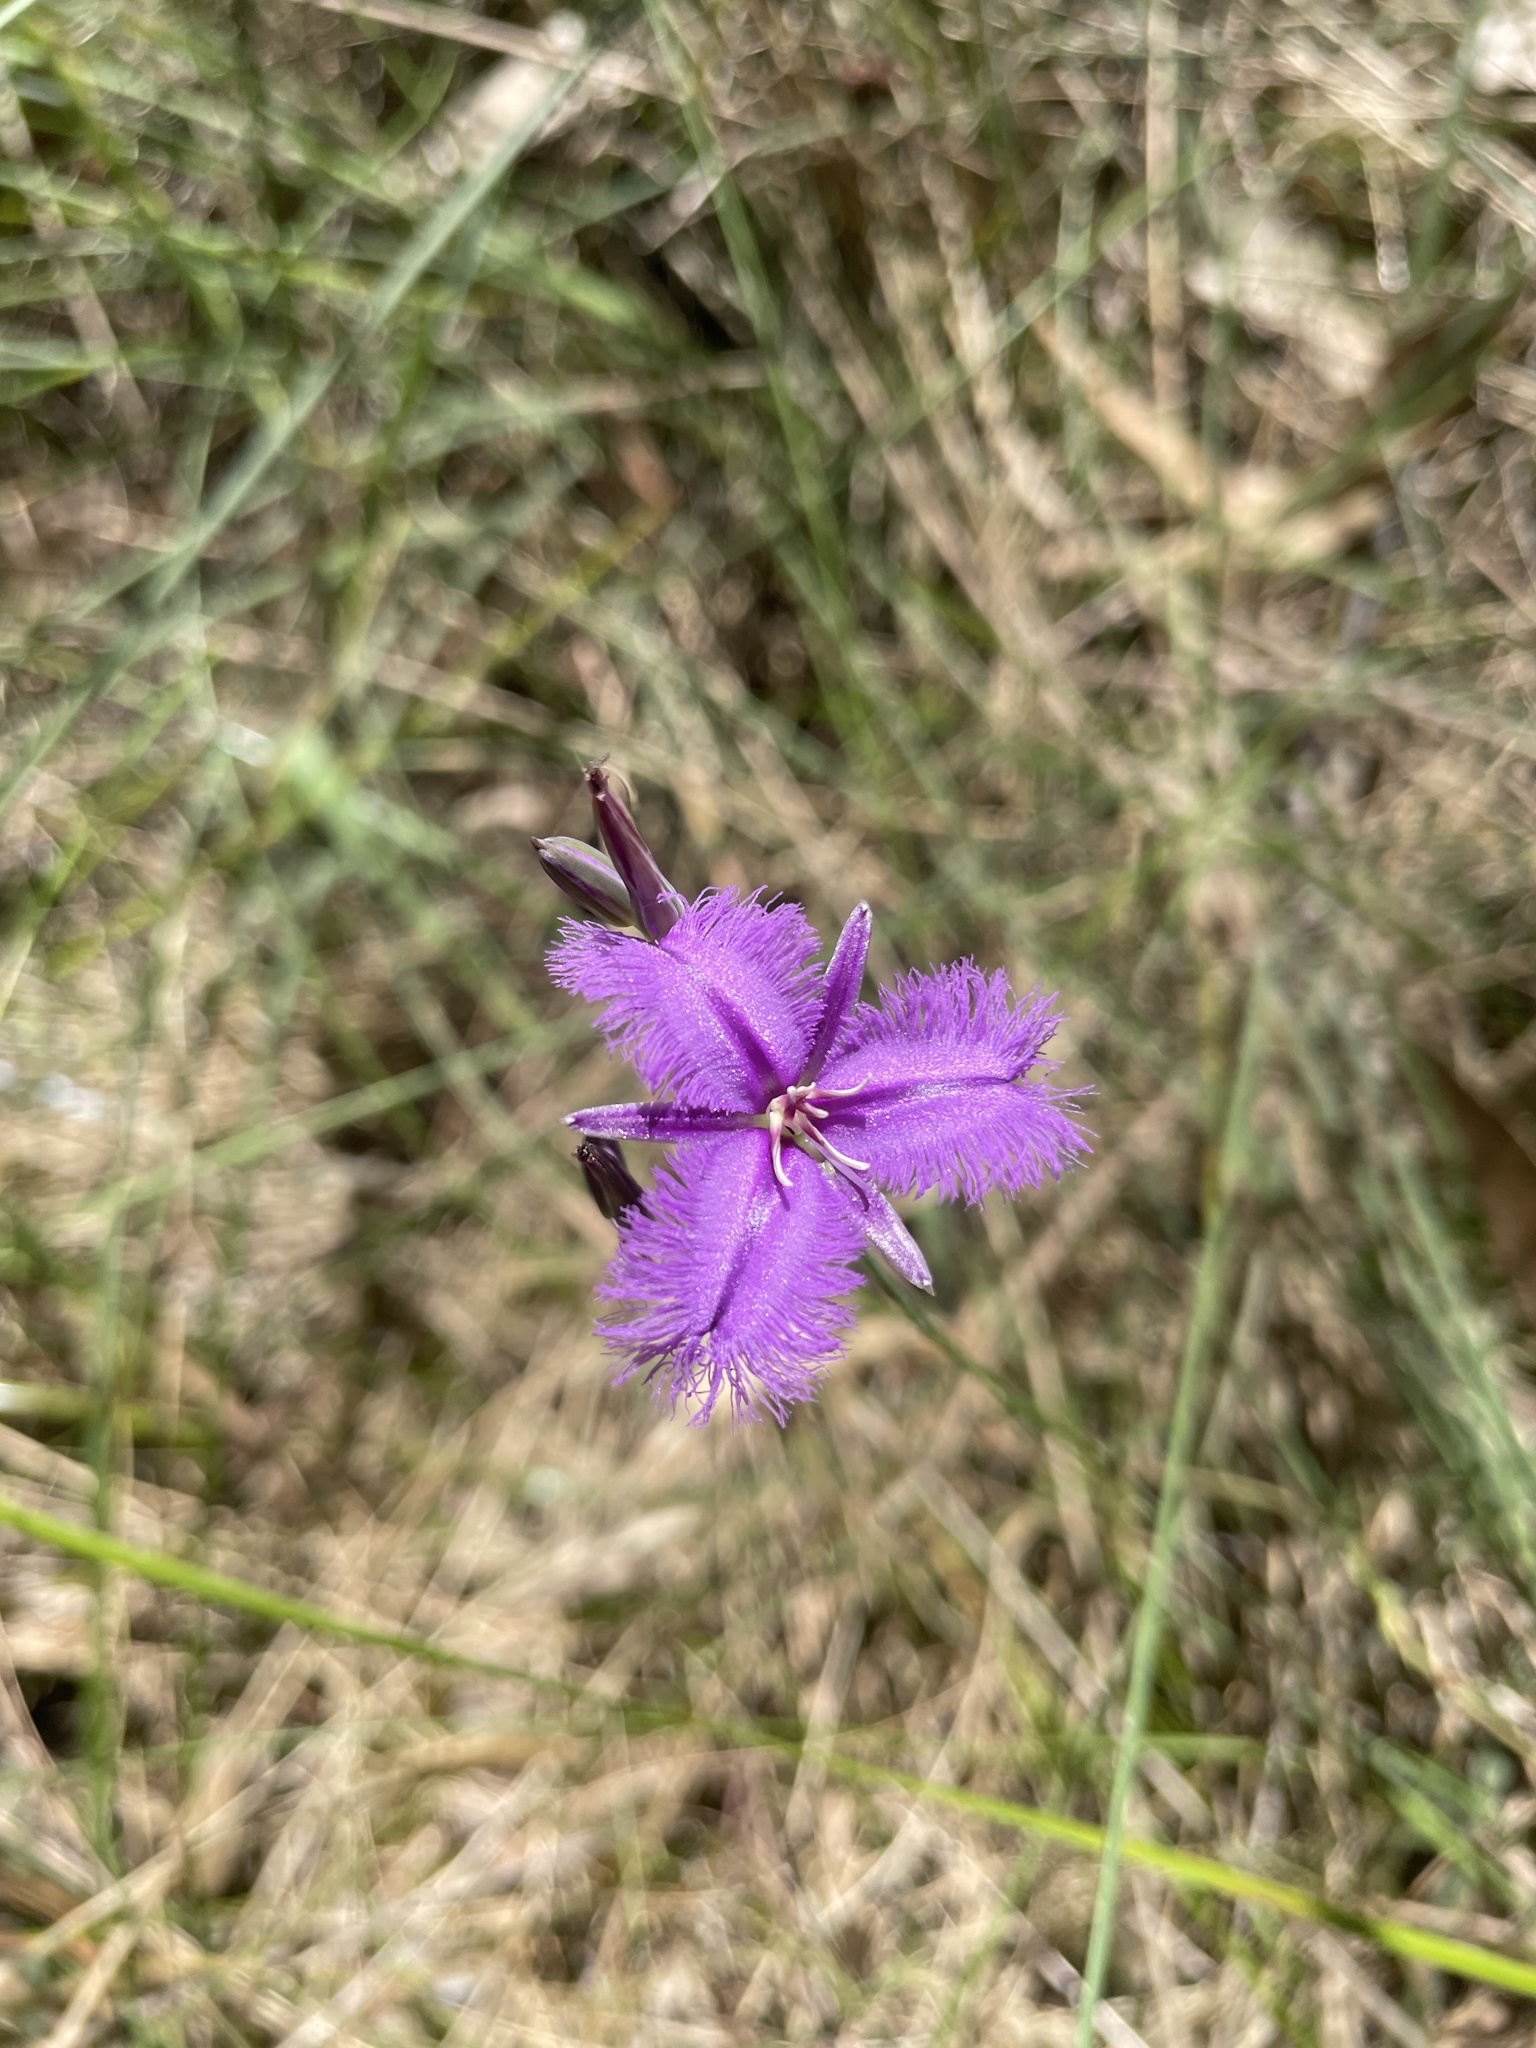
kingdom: Plantae
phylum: Tracheophyta
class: Liliopsida
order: Asparagales
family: Asparagaceae
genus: Thysanotus
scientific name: Thysanotus tuberosus
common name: Common fringed-lily
